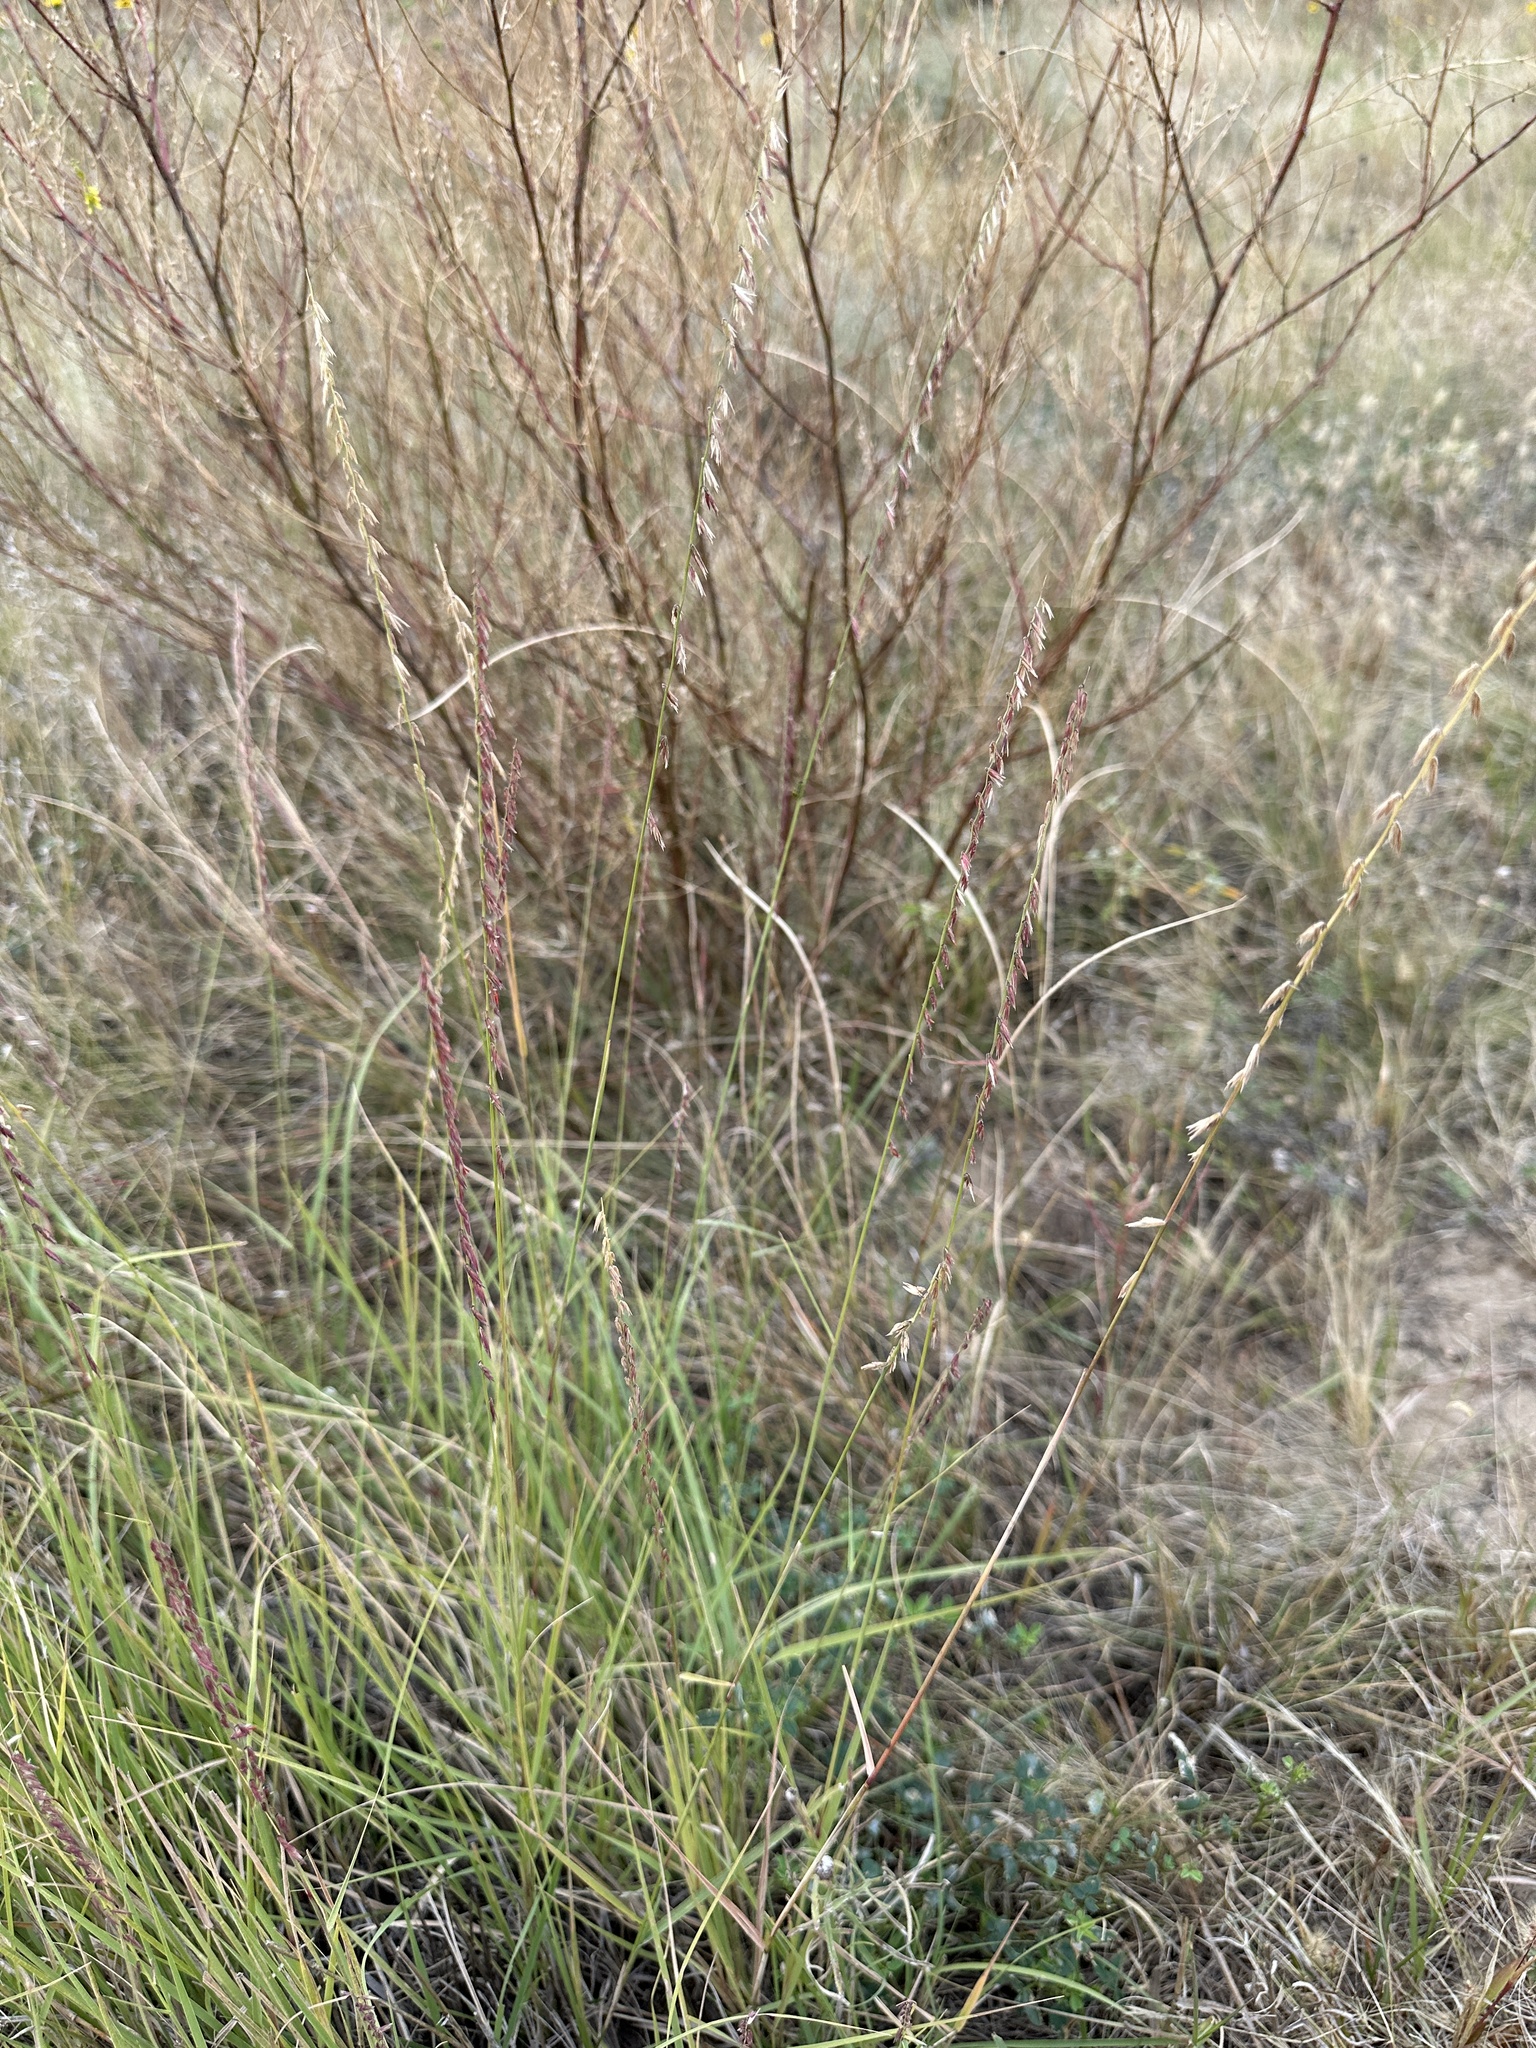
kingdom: Plantae
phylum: Tracheophyta
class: Liliopsida
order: Poales
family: Poaceae
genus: Bouteloua
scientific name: Bouteloua curtipendula
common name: Side-oats grama
